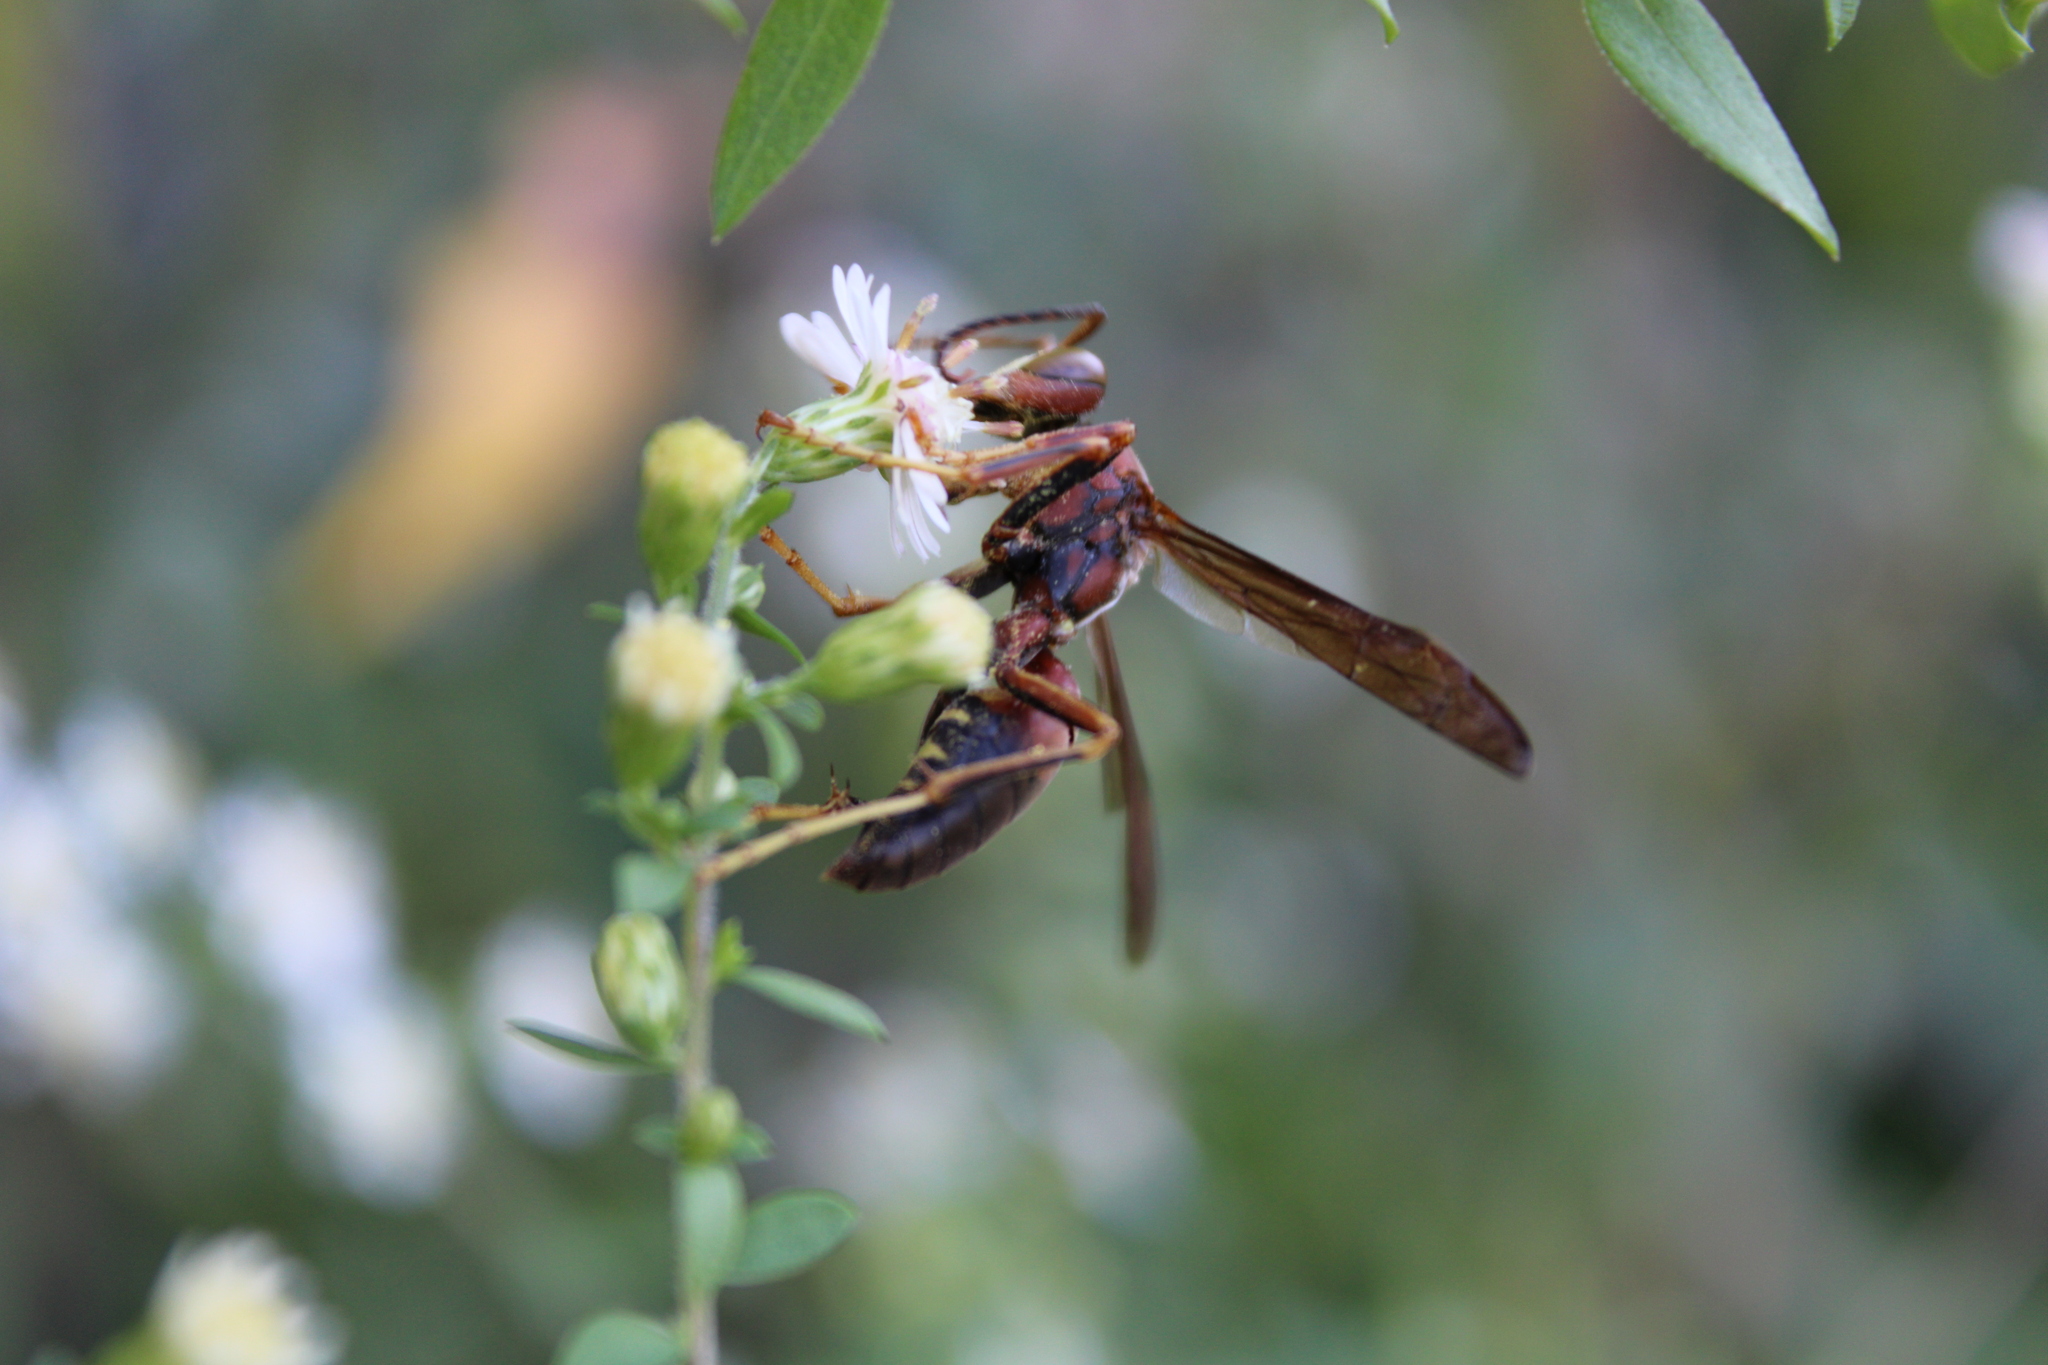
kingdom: Animalia
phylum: Arthropoda
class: Insecta
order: Hymenoptera
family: Eumenidae
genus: Polistes
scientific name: Polistes metricus
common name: Metric paper wasp
